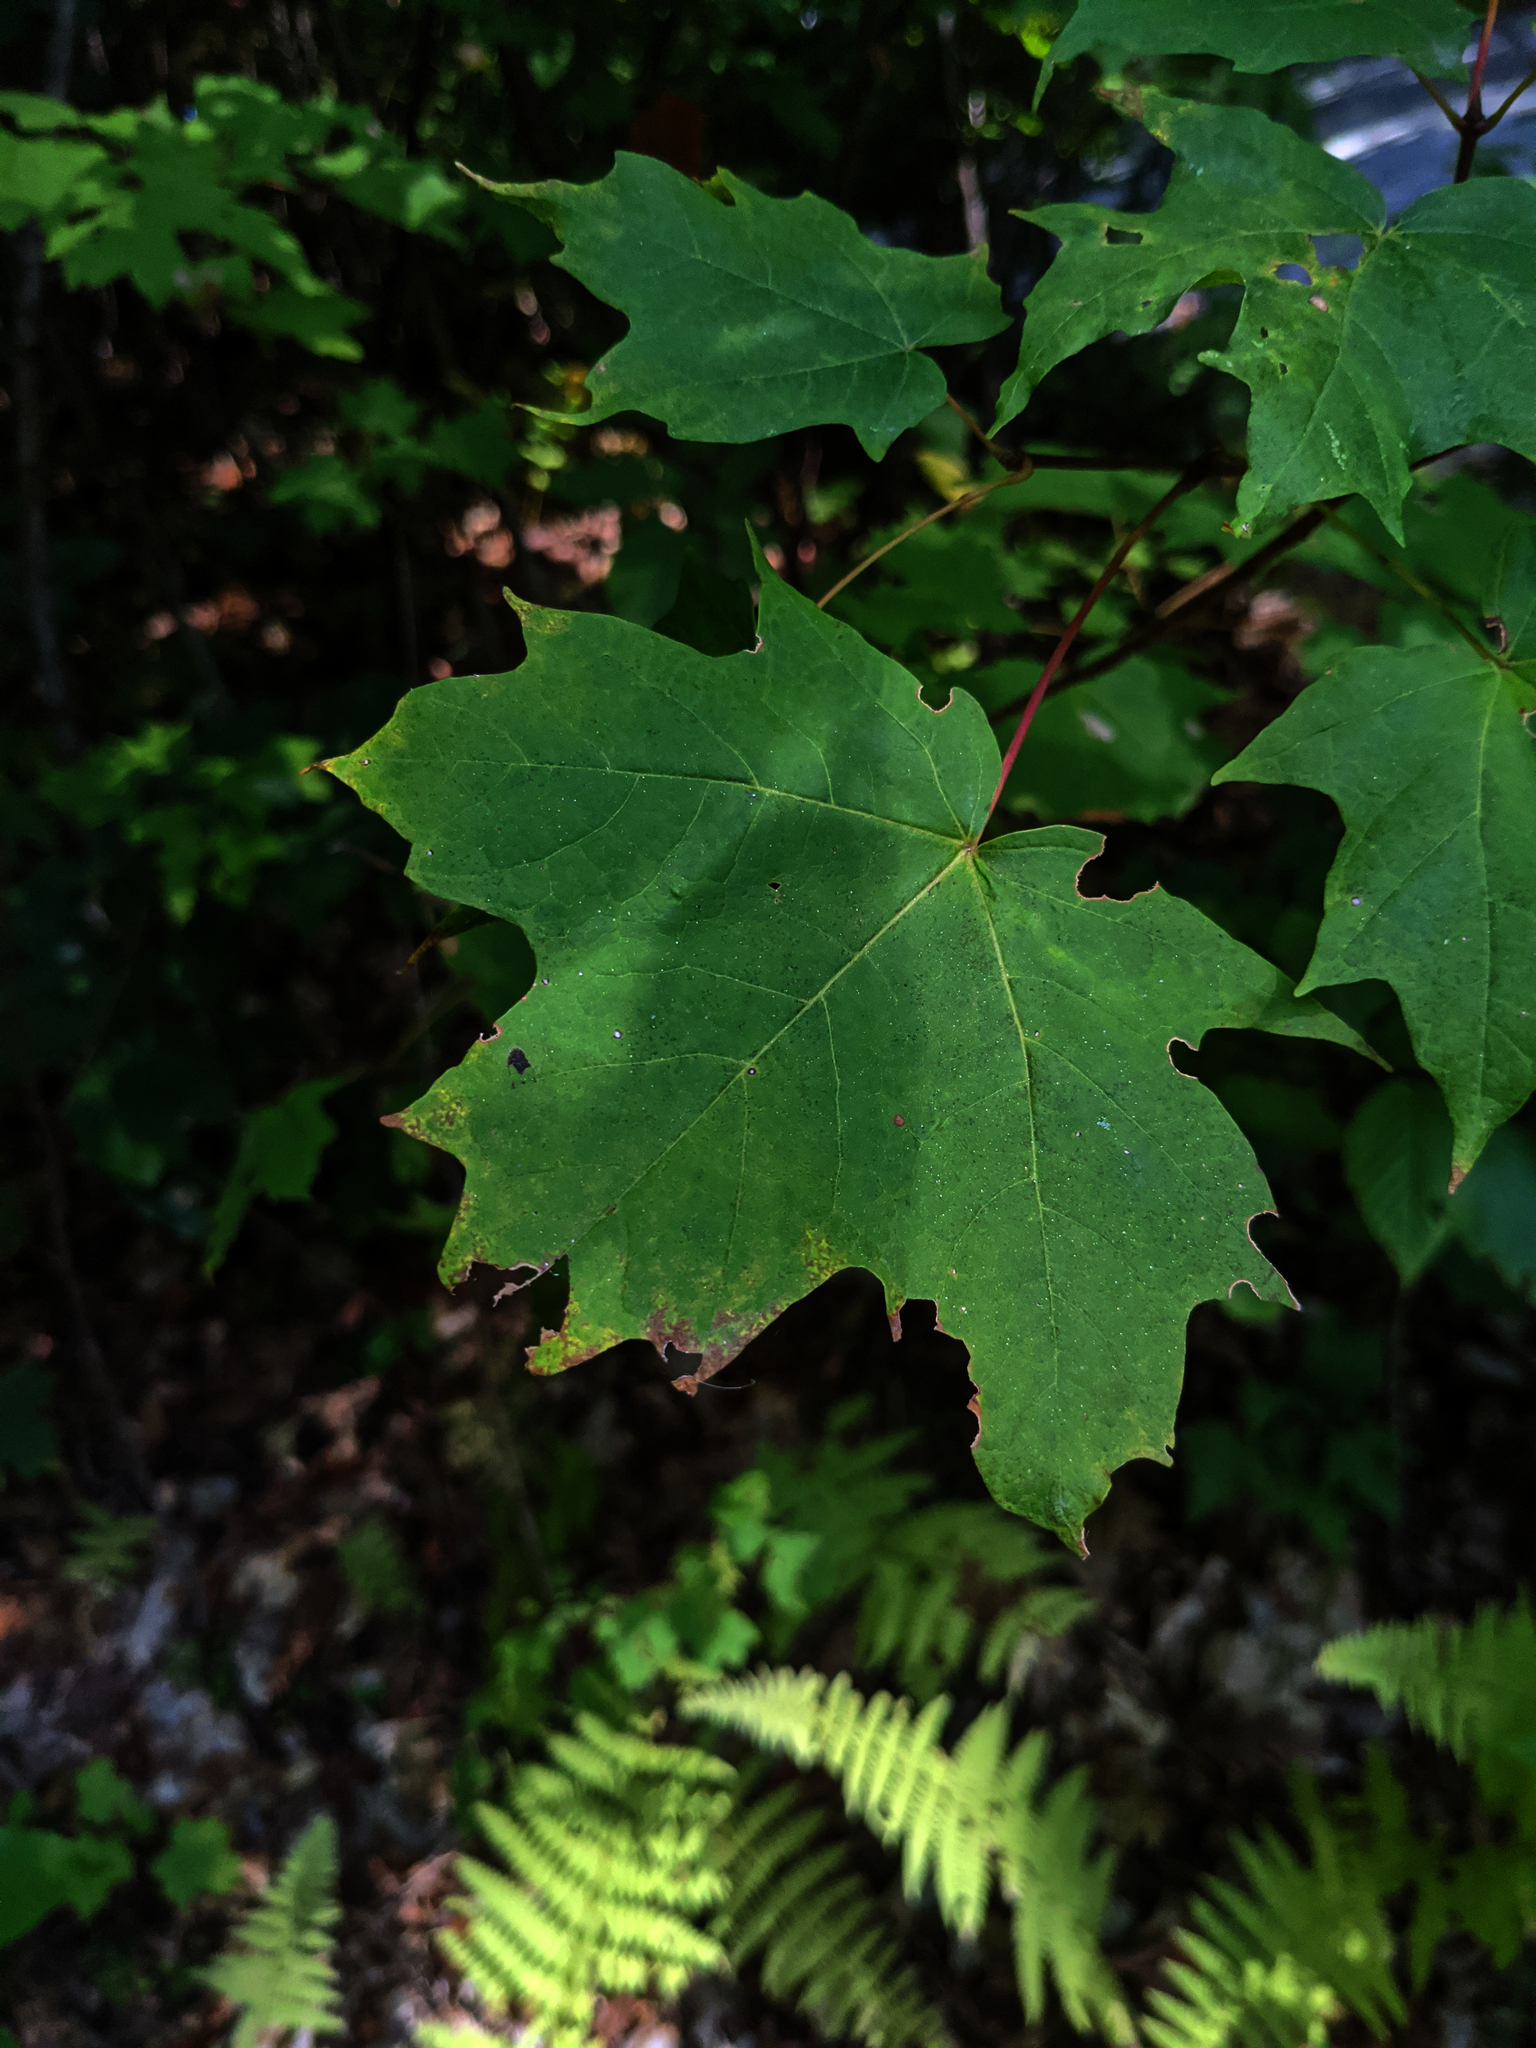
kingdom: Plantae
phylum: Tracheophyta
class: Magnoliopsida
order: Sapindales
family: Sapindaceae
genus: Acer
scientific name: Acer saccharum
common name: Sugar maple
